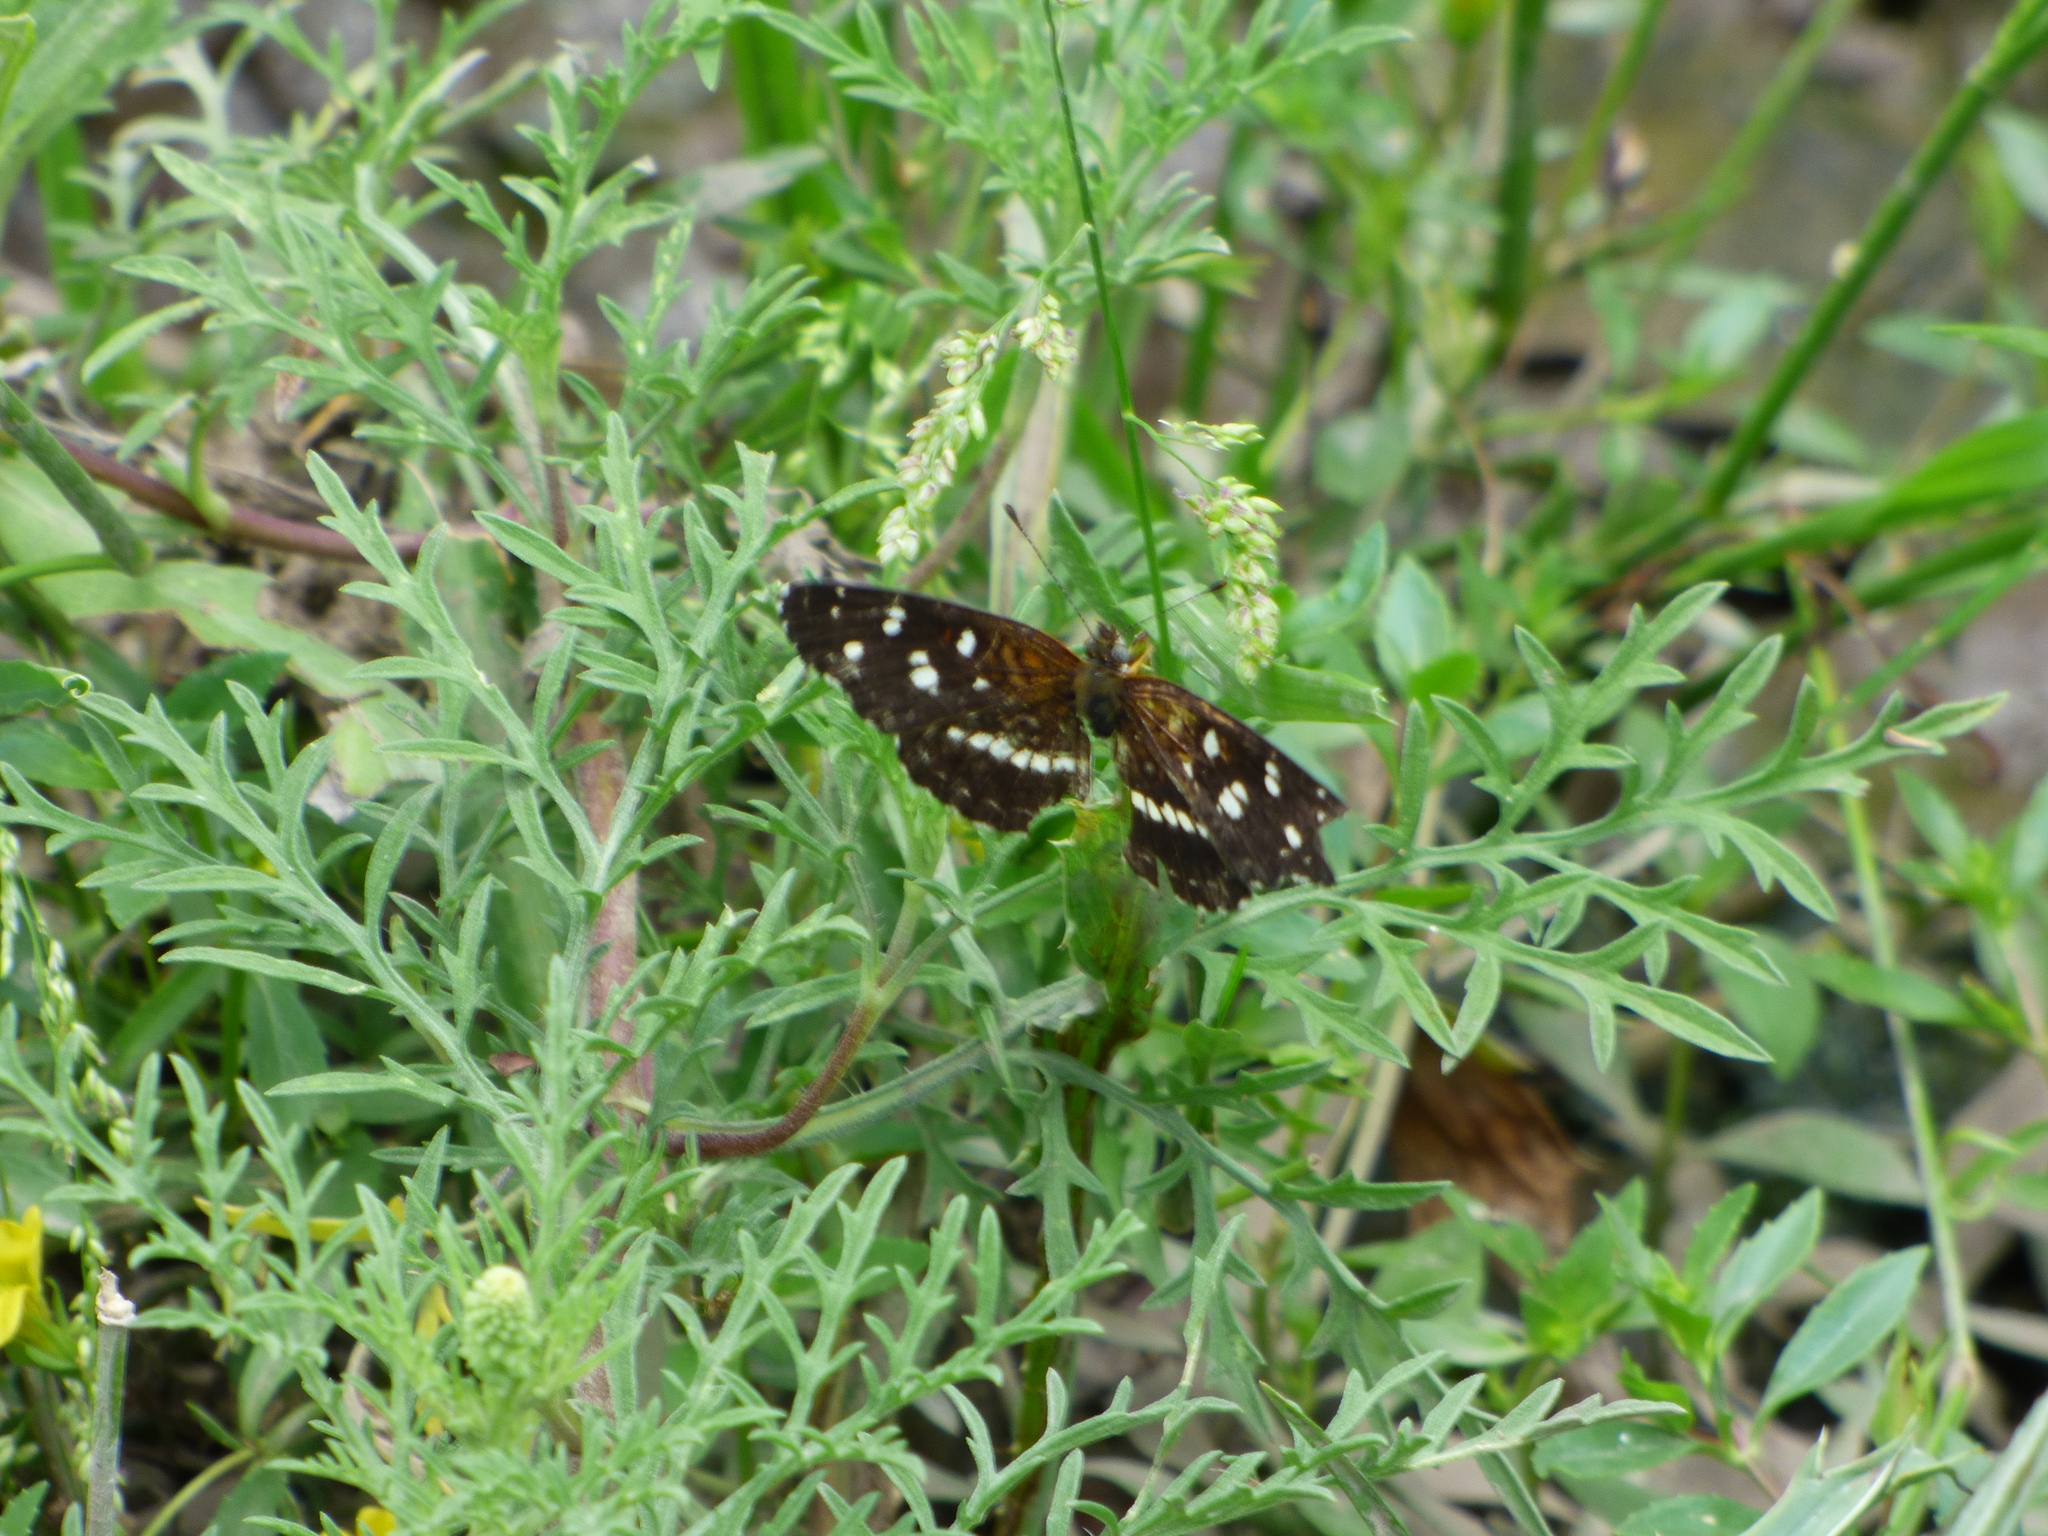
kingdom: Animalia
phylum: Arthropoda
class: Insecta
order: Lepidoptera
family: Nymphalidae
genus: Ortilia
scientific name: Ortilia ithra
